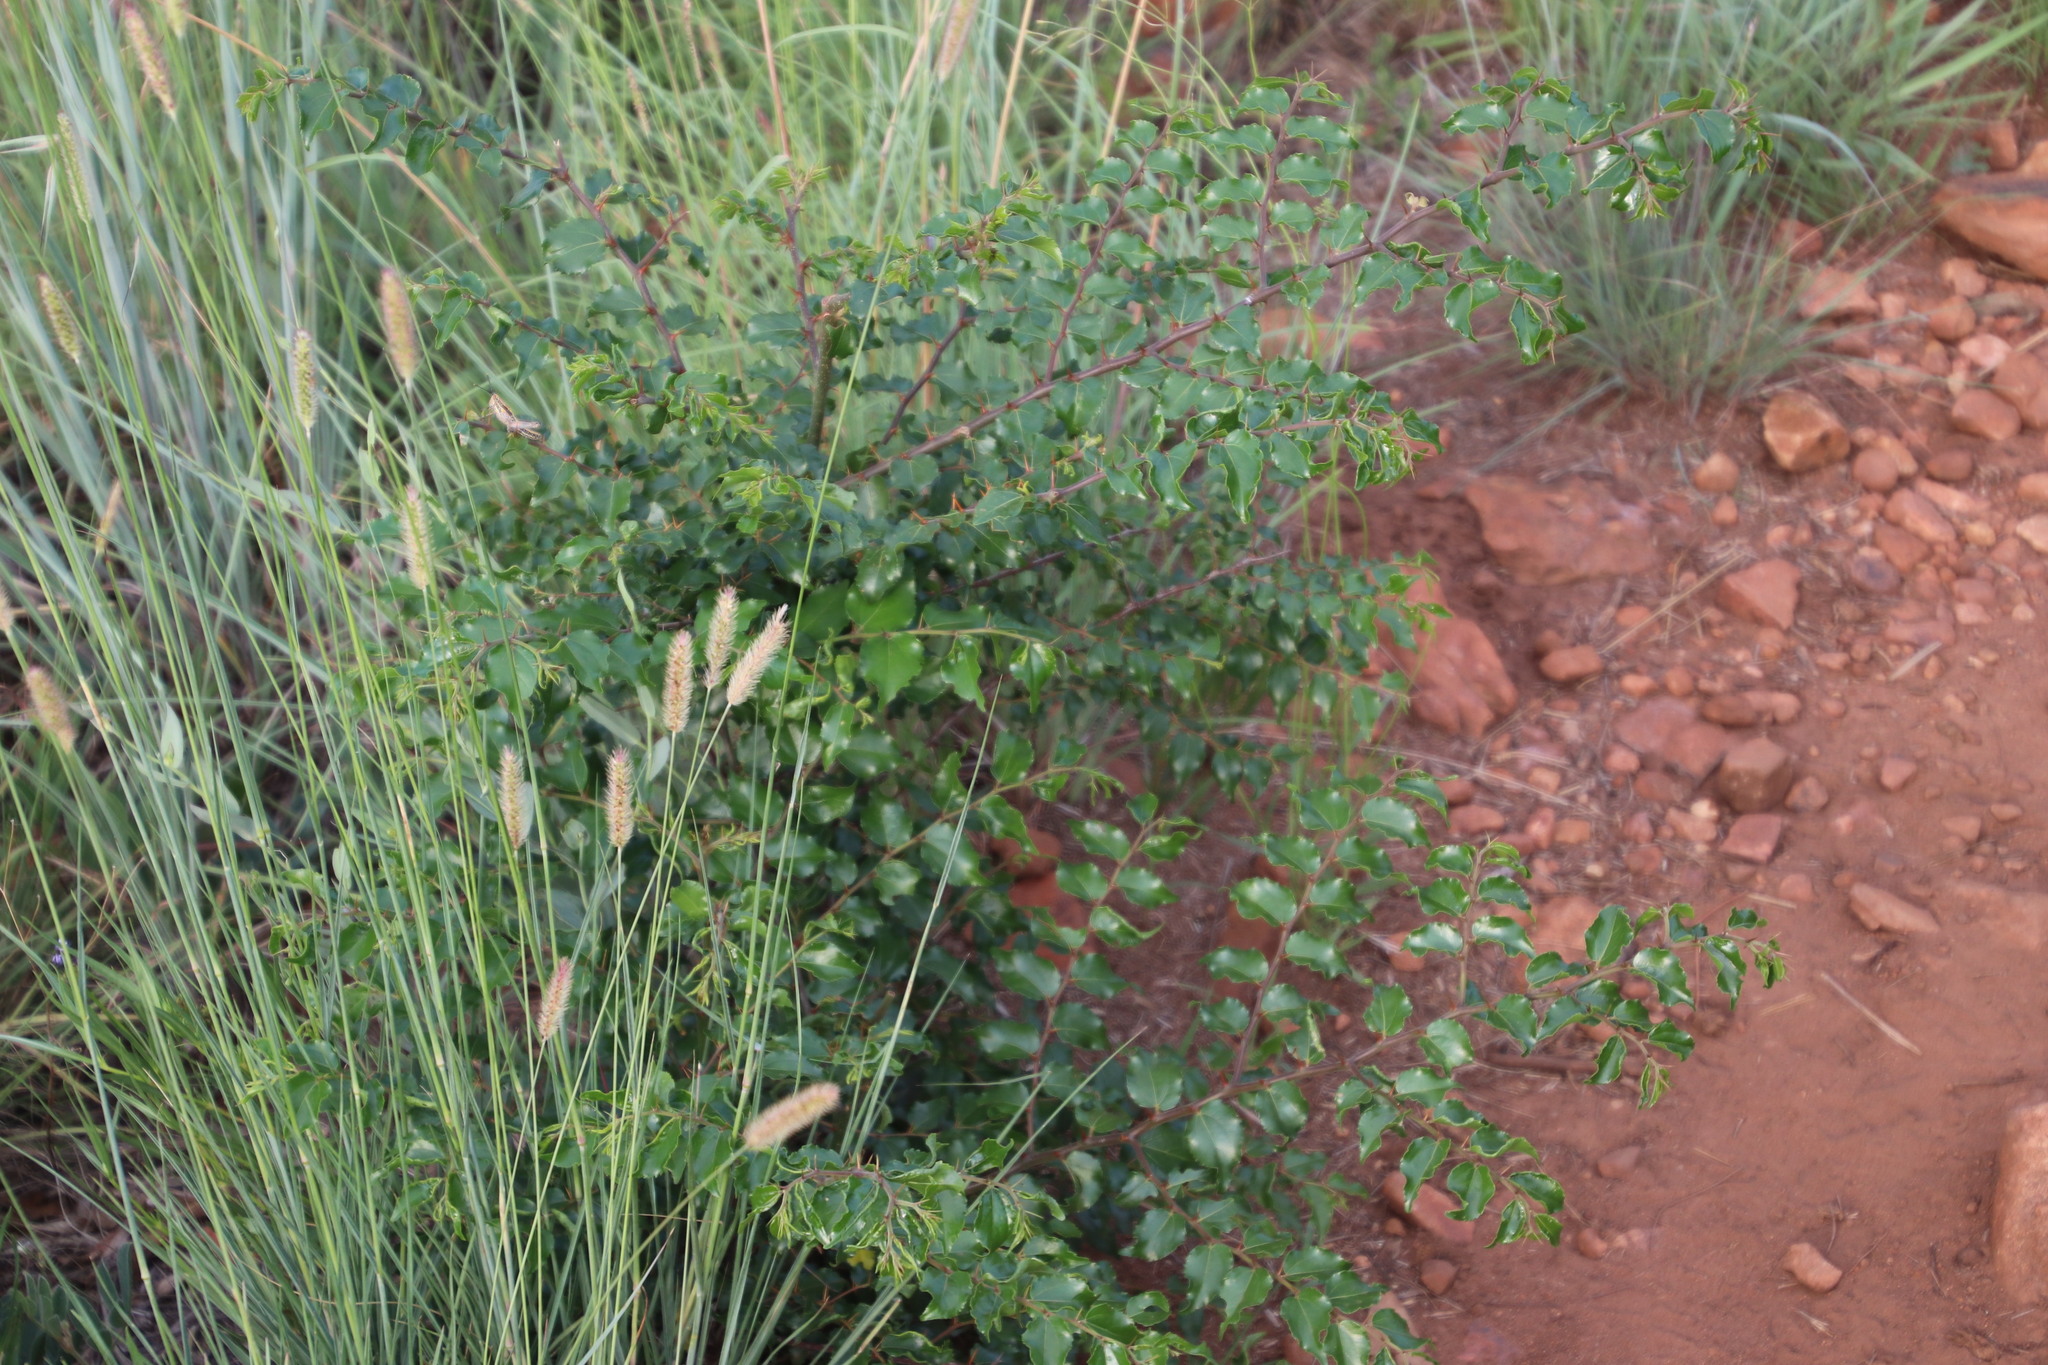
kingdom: Plantae
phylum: Tracheophyta
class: Magnoliopsida
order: Rosales
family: Rhamnaceae
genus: Ziziphus
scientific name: Ziziphus mucronata
